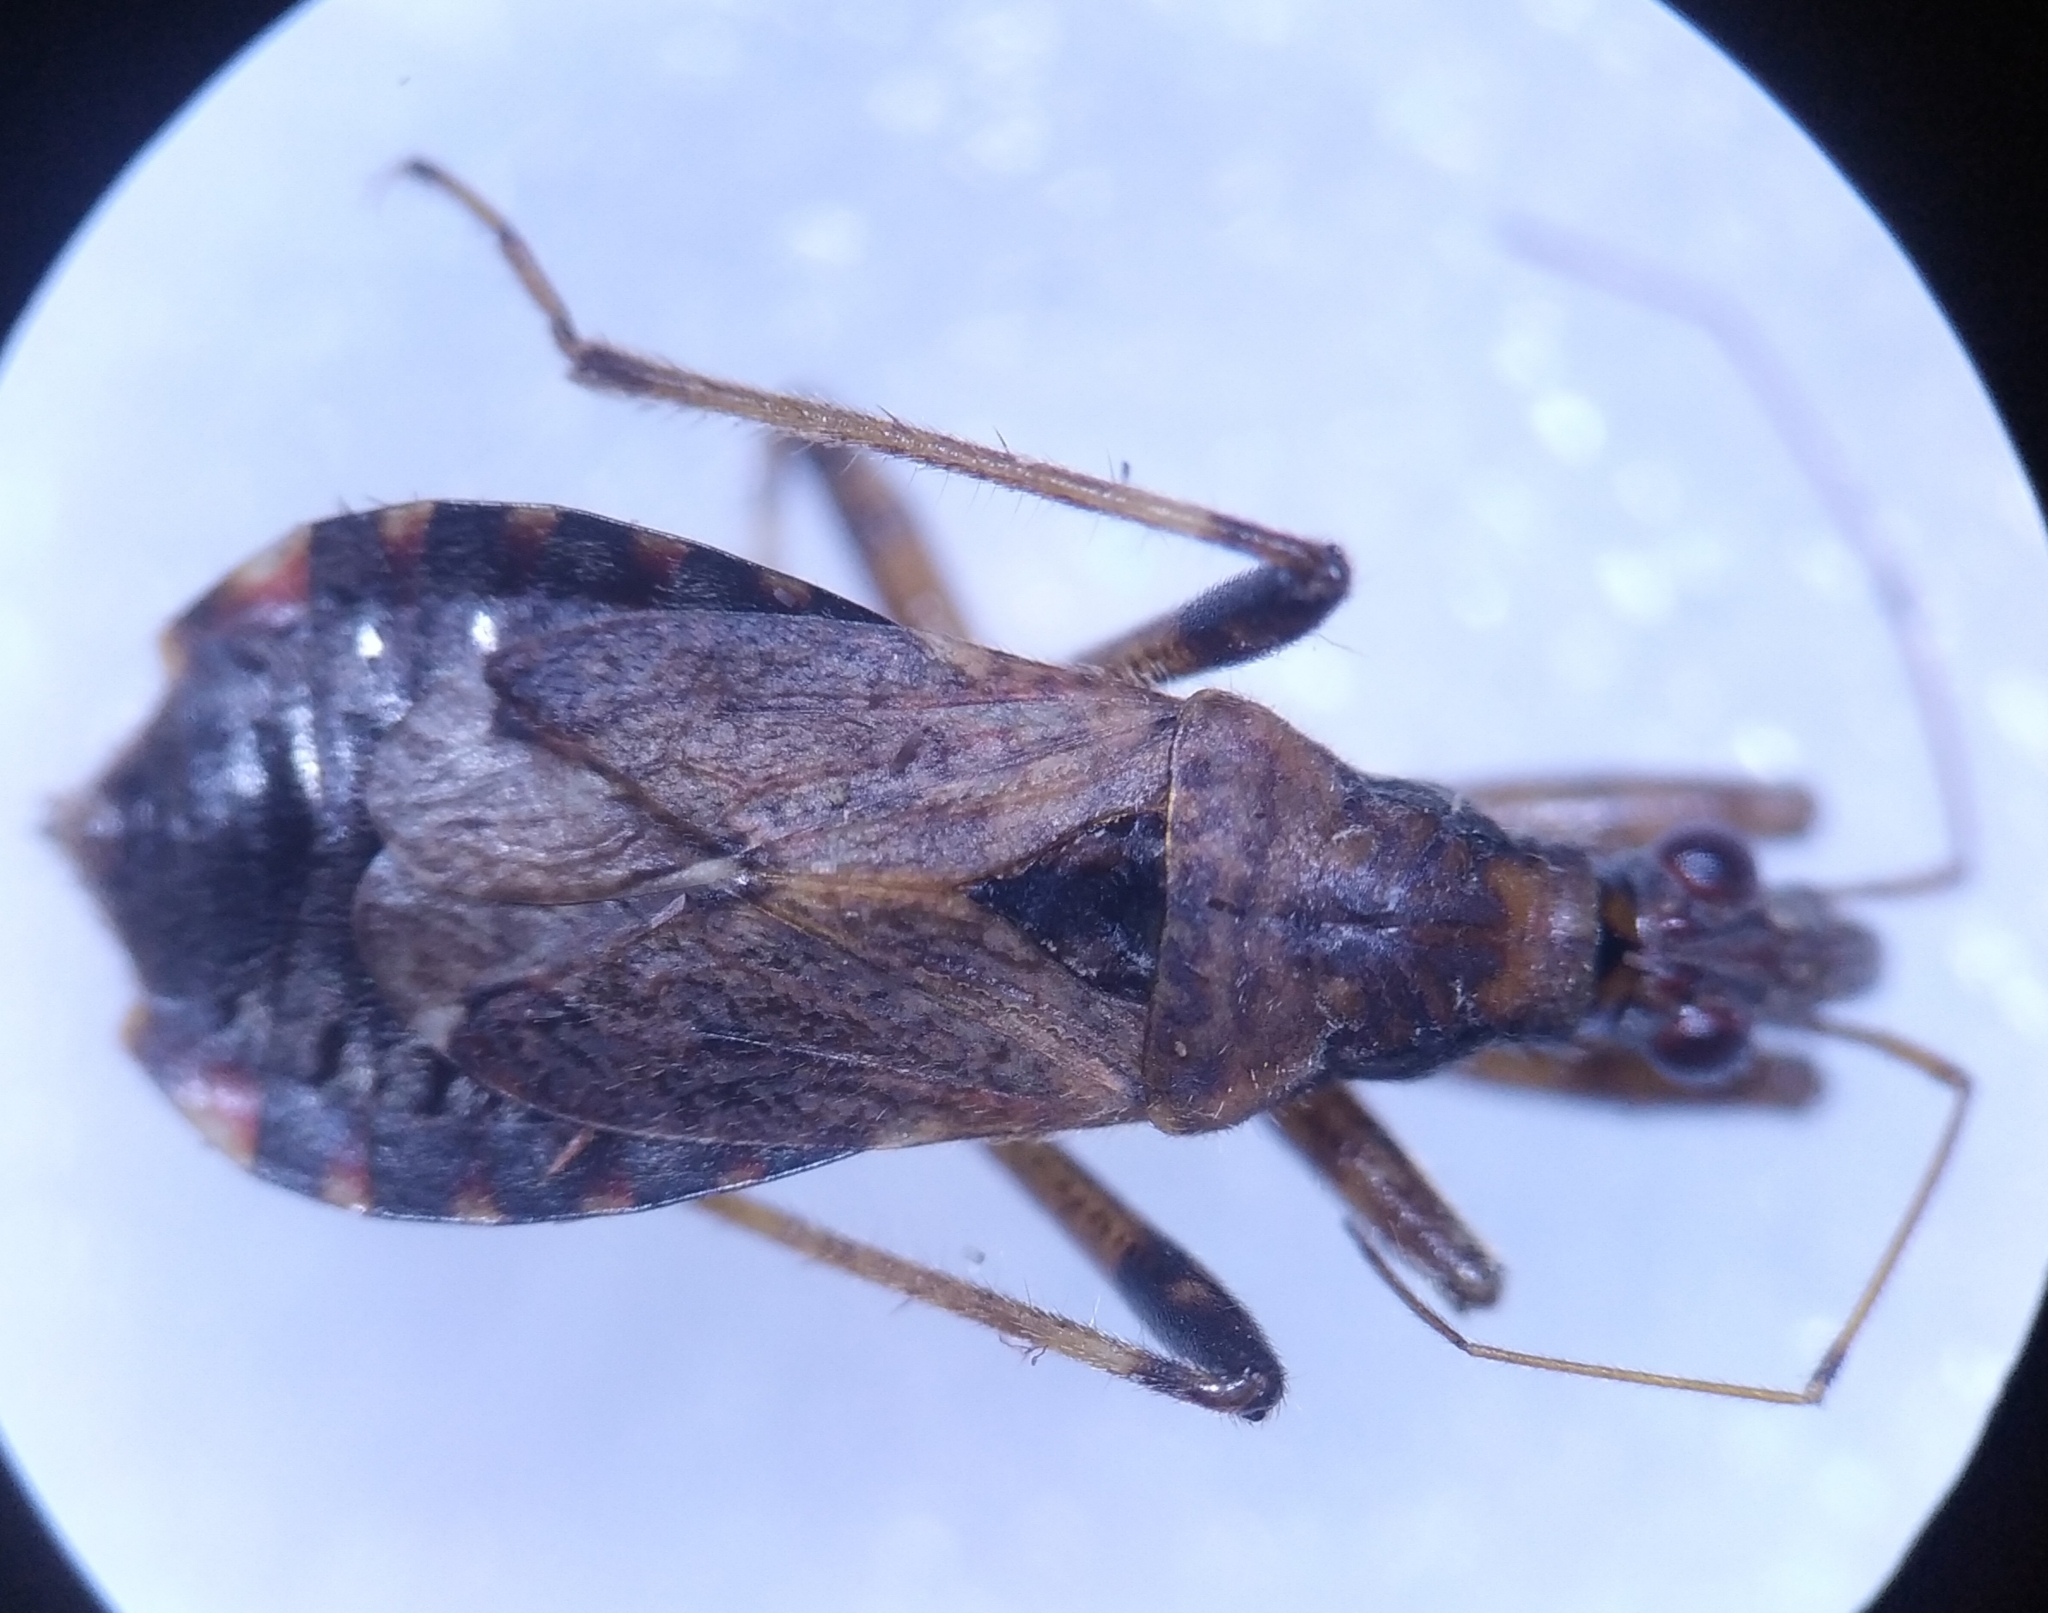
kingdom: Animalia
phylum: Arthropoda
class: Insecta
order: Hemiptera
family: Nabidae
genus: Himacerus
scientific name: Himacerus mirmicoides
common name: Ant damsel bug
